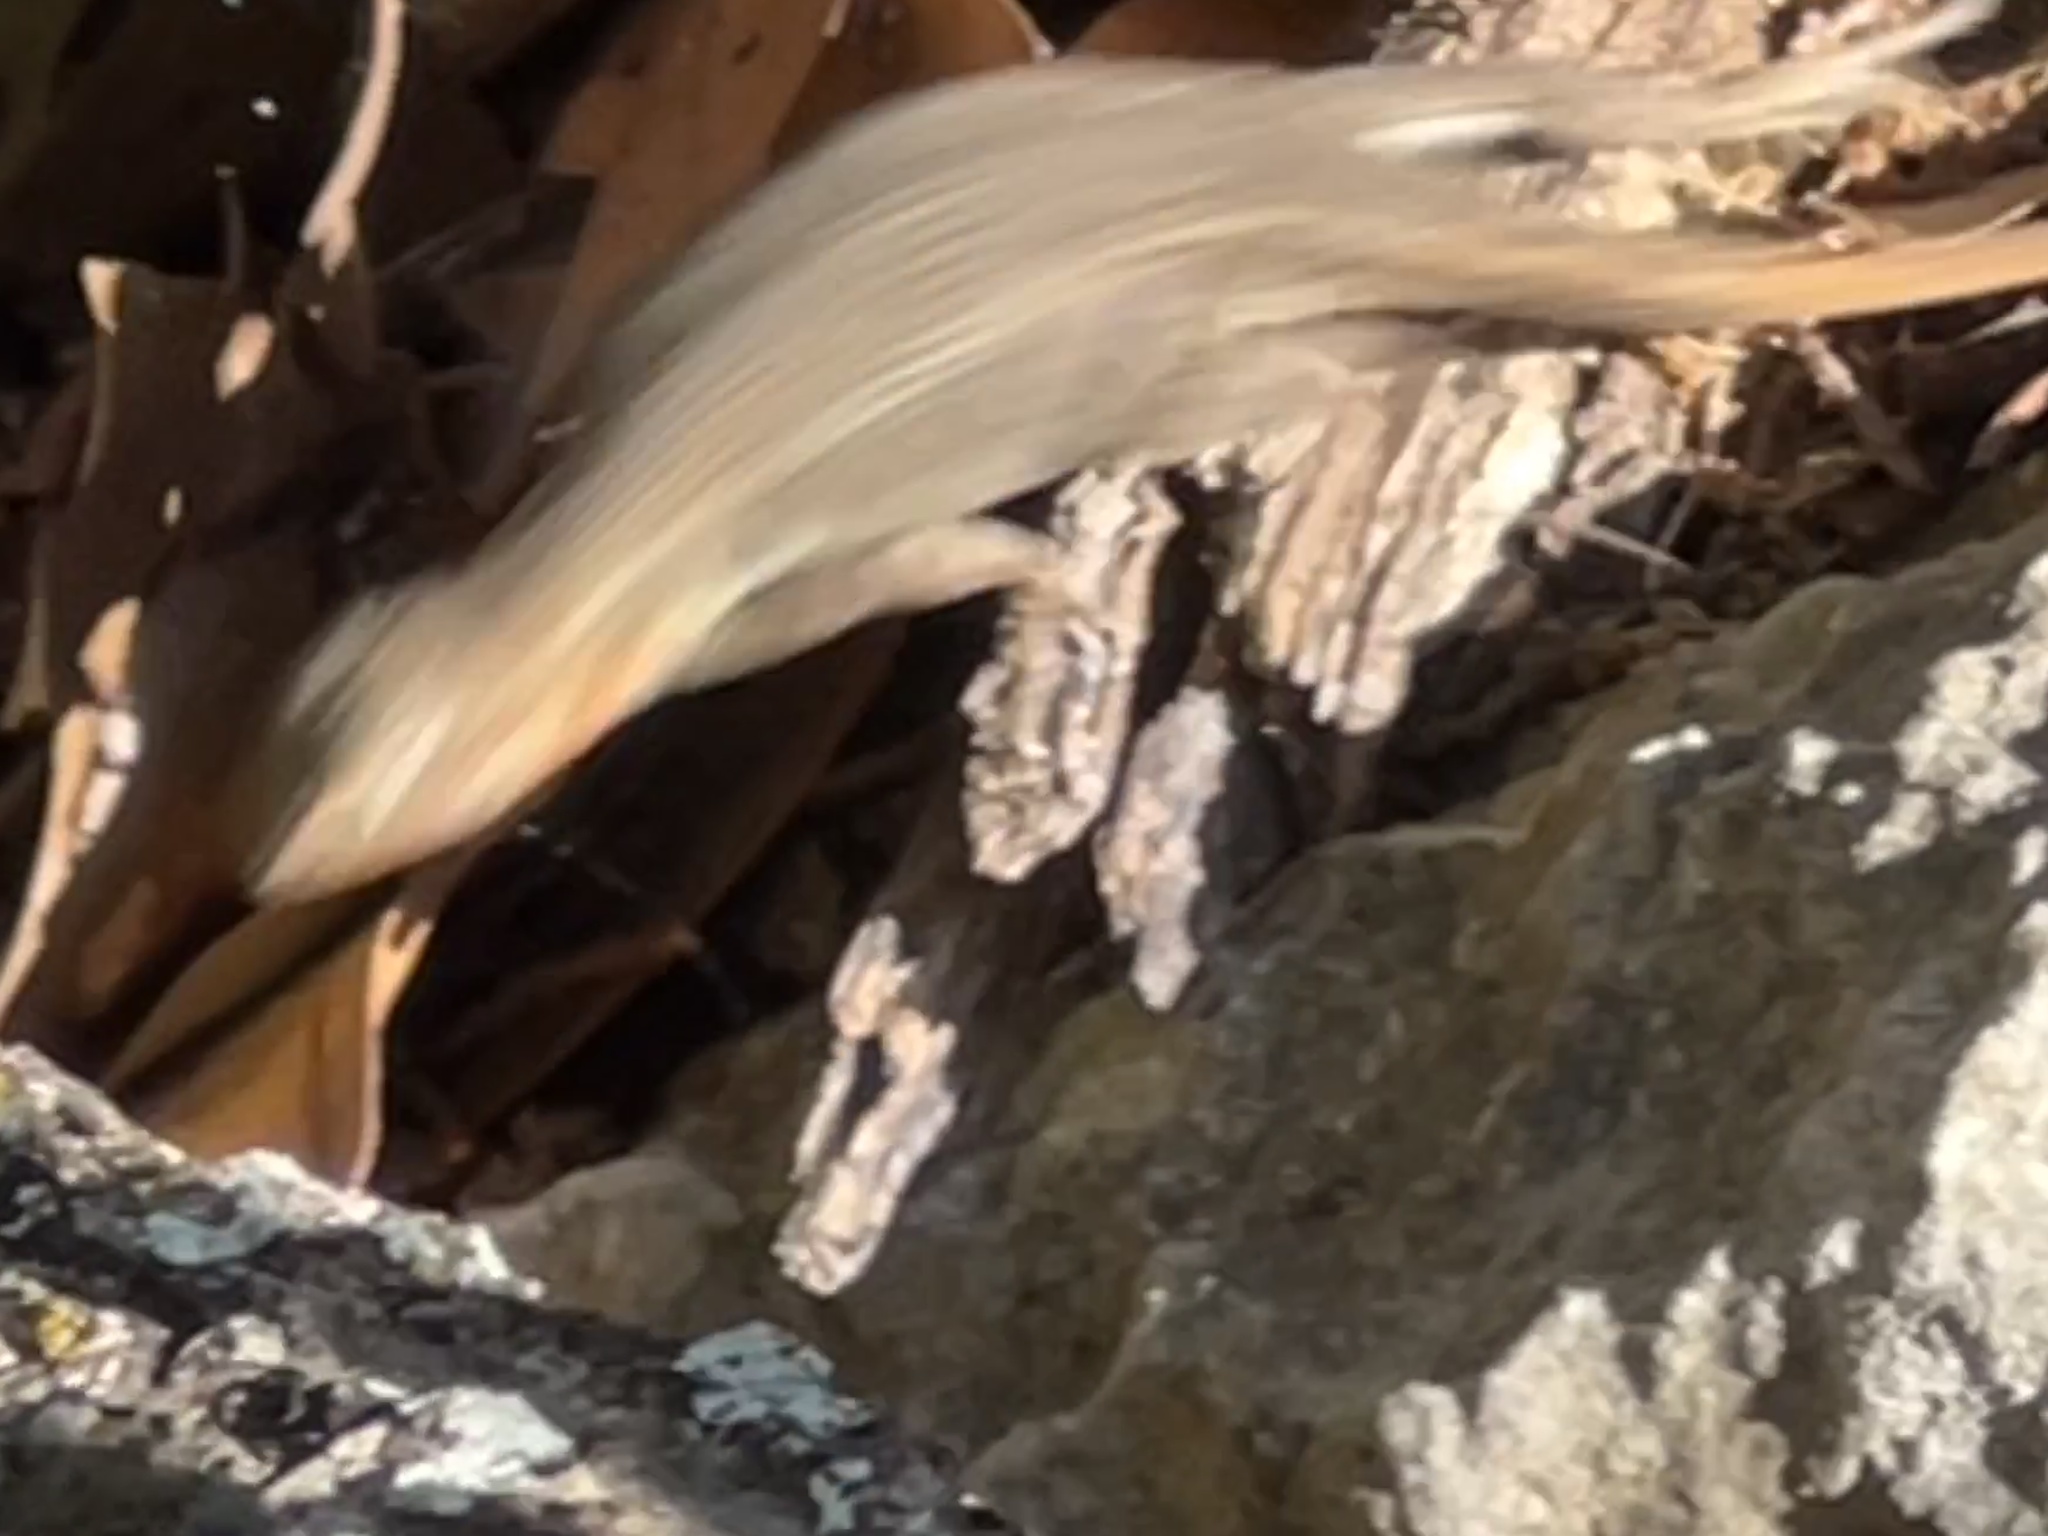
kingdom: Animalia
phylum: Chordata
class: Squamata
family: Phrynosomatidae
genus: Sceloporus
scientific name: Sceloporus variabilis
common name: Rosebelly lizard
